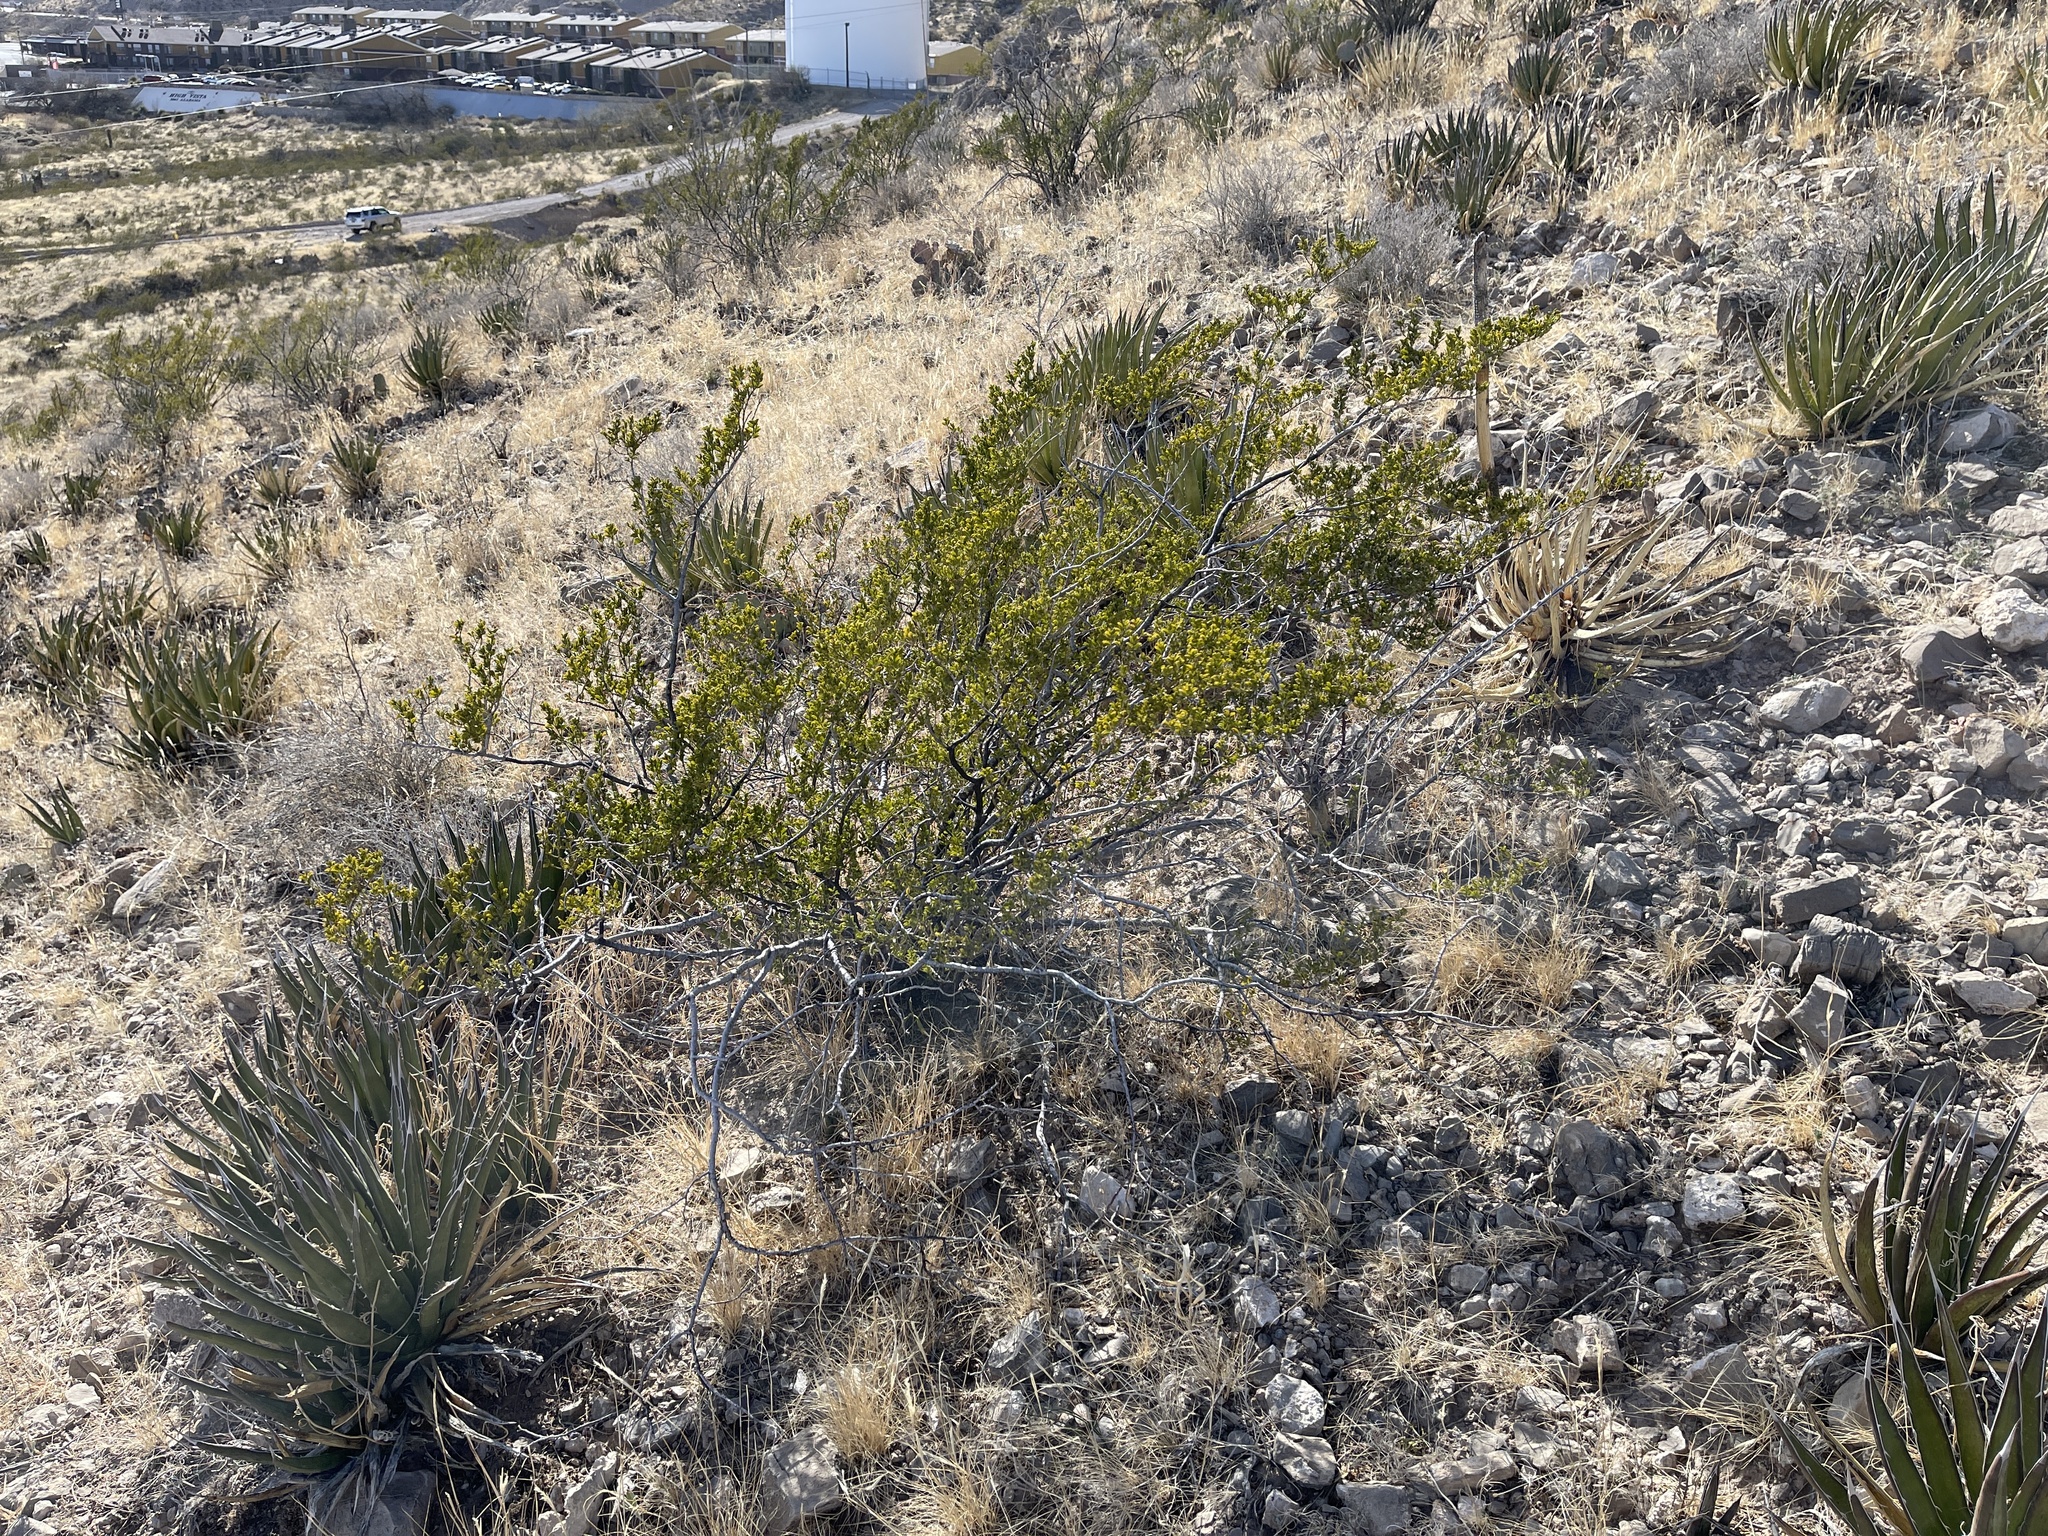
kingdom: Plantae
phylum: Tracheophyta
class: Magnoliopsida
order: Zygophyllales
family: Zygophyllaceae
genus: Larrea
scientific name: Larrea tridentata
